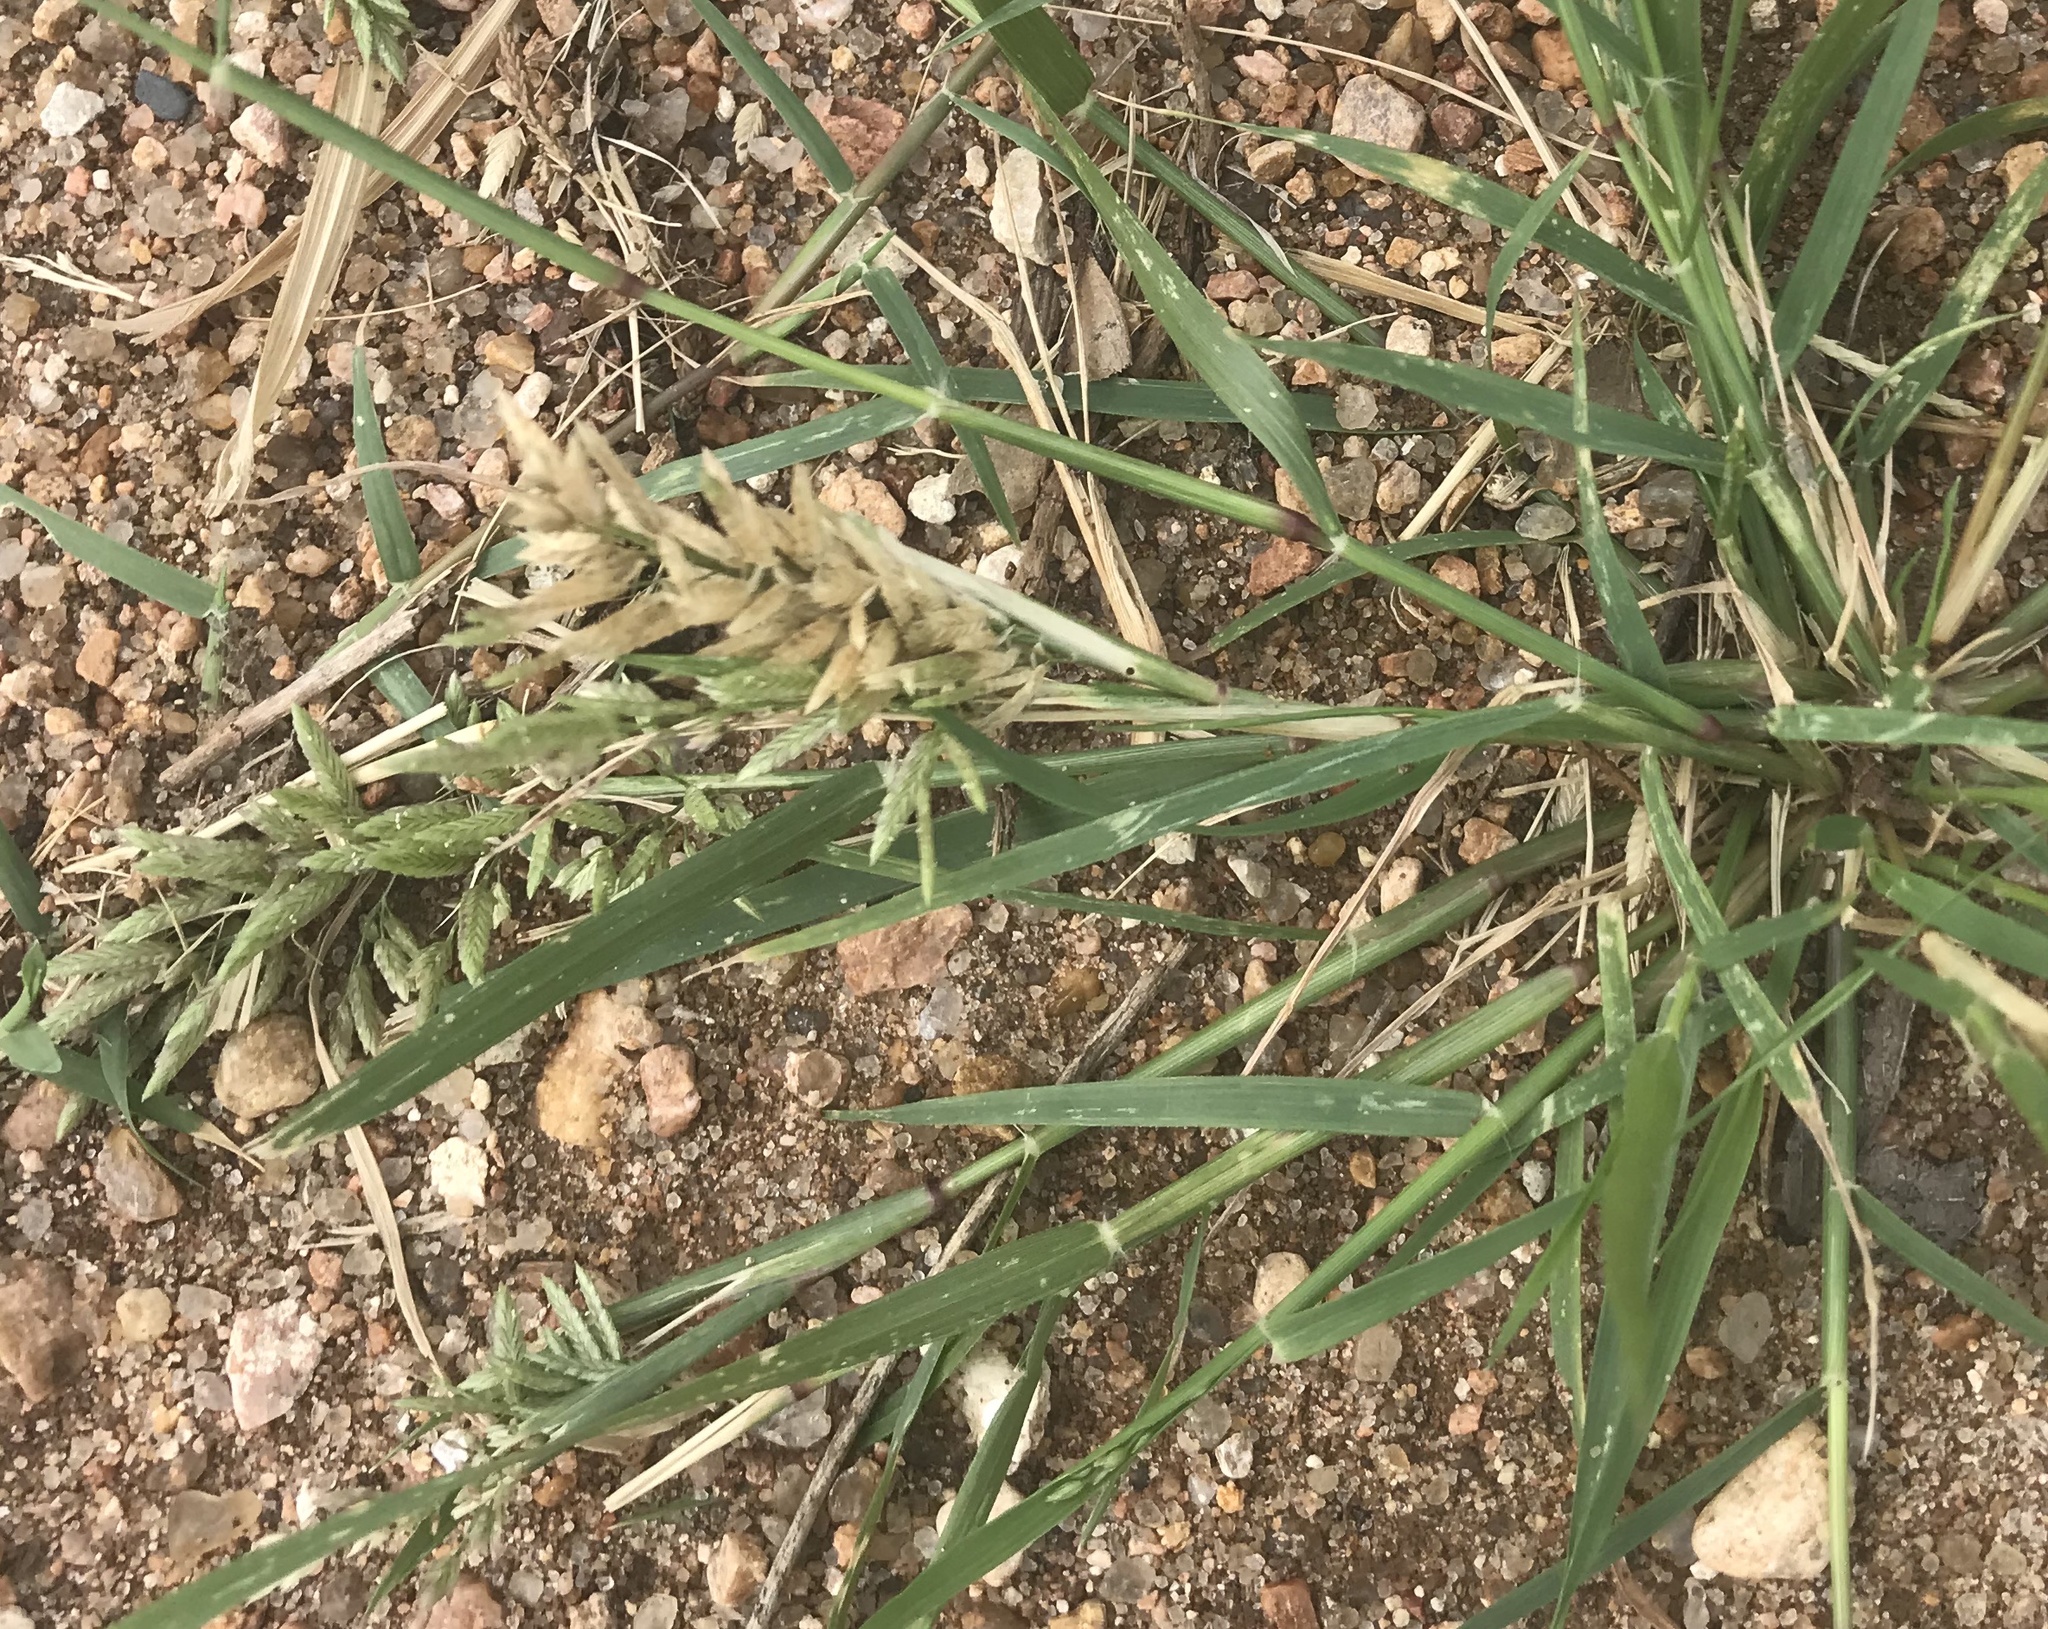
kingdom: Plantae
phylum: Tracheophyta
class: Liliopsida
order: Poales
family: Poaceae
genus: Eragrostis
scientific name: Eragrostis cilianensis
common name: Stinkgrass
